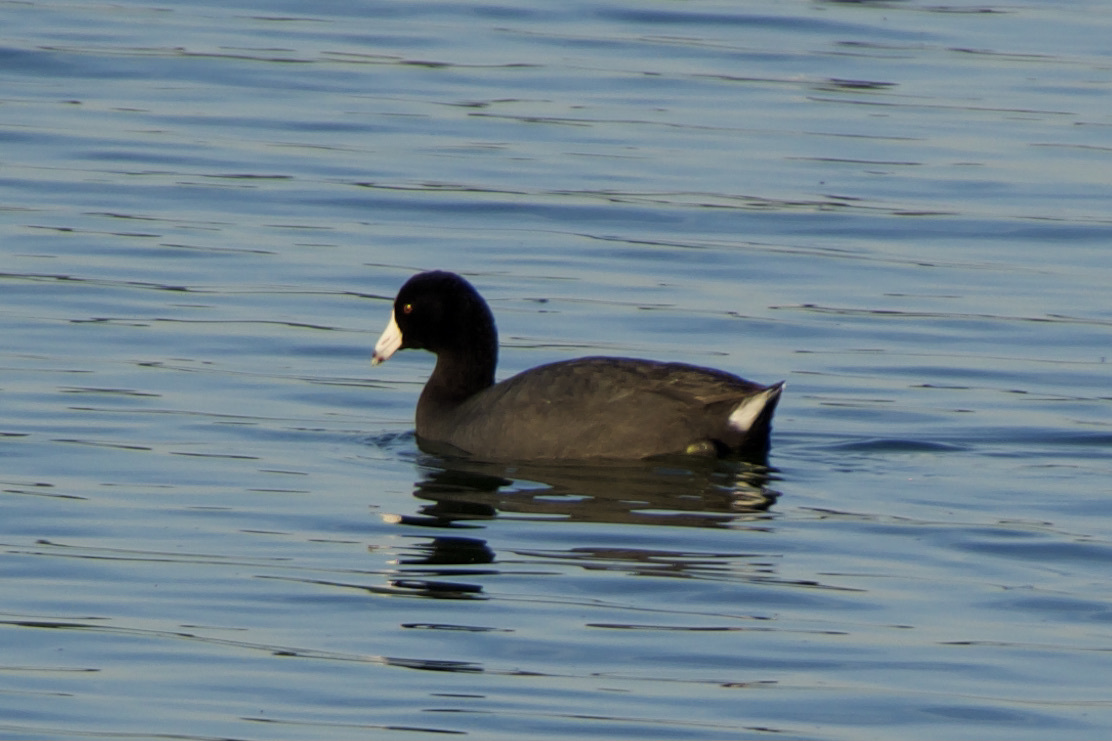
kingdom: Animalia
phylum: Chordata
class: Aves
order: Gruiformes
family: Rallidae
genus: Fulica
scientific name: Fulica americana
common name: American coot
